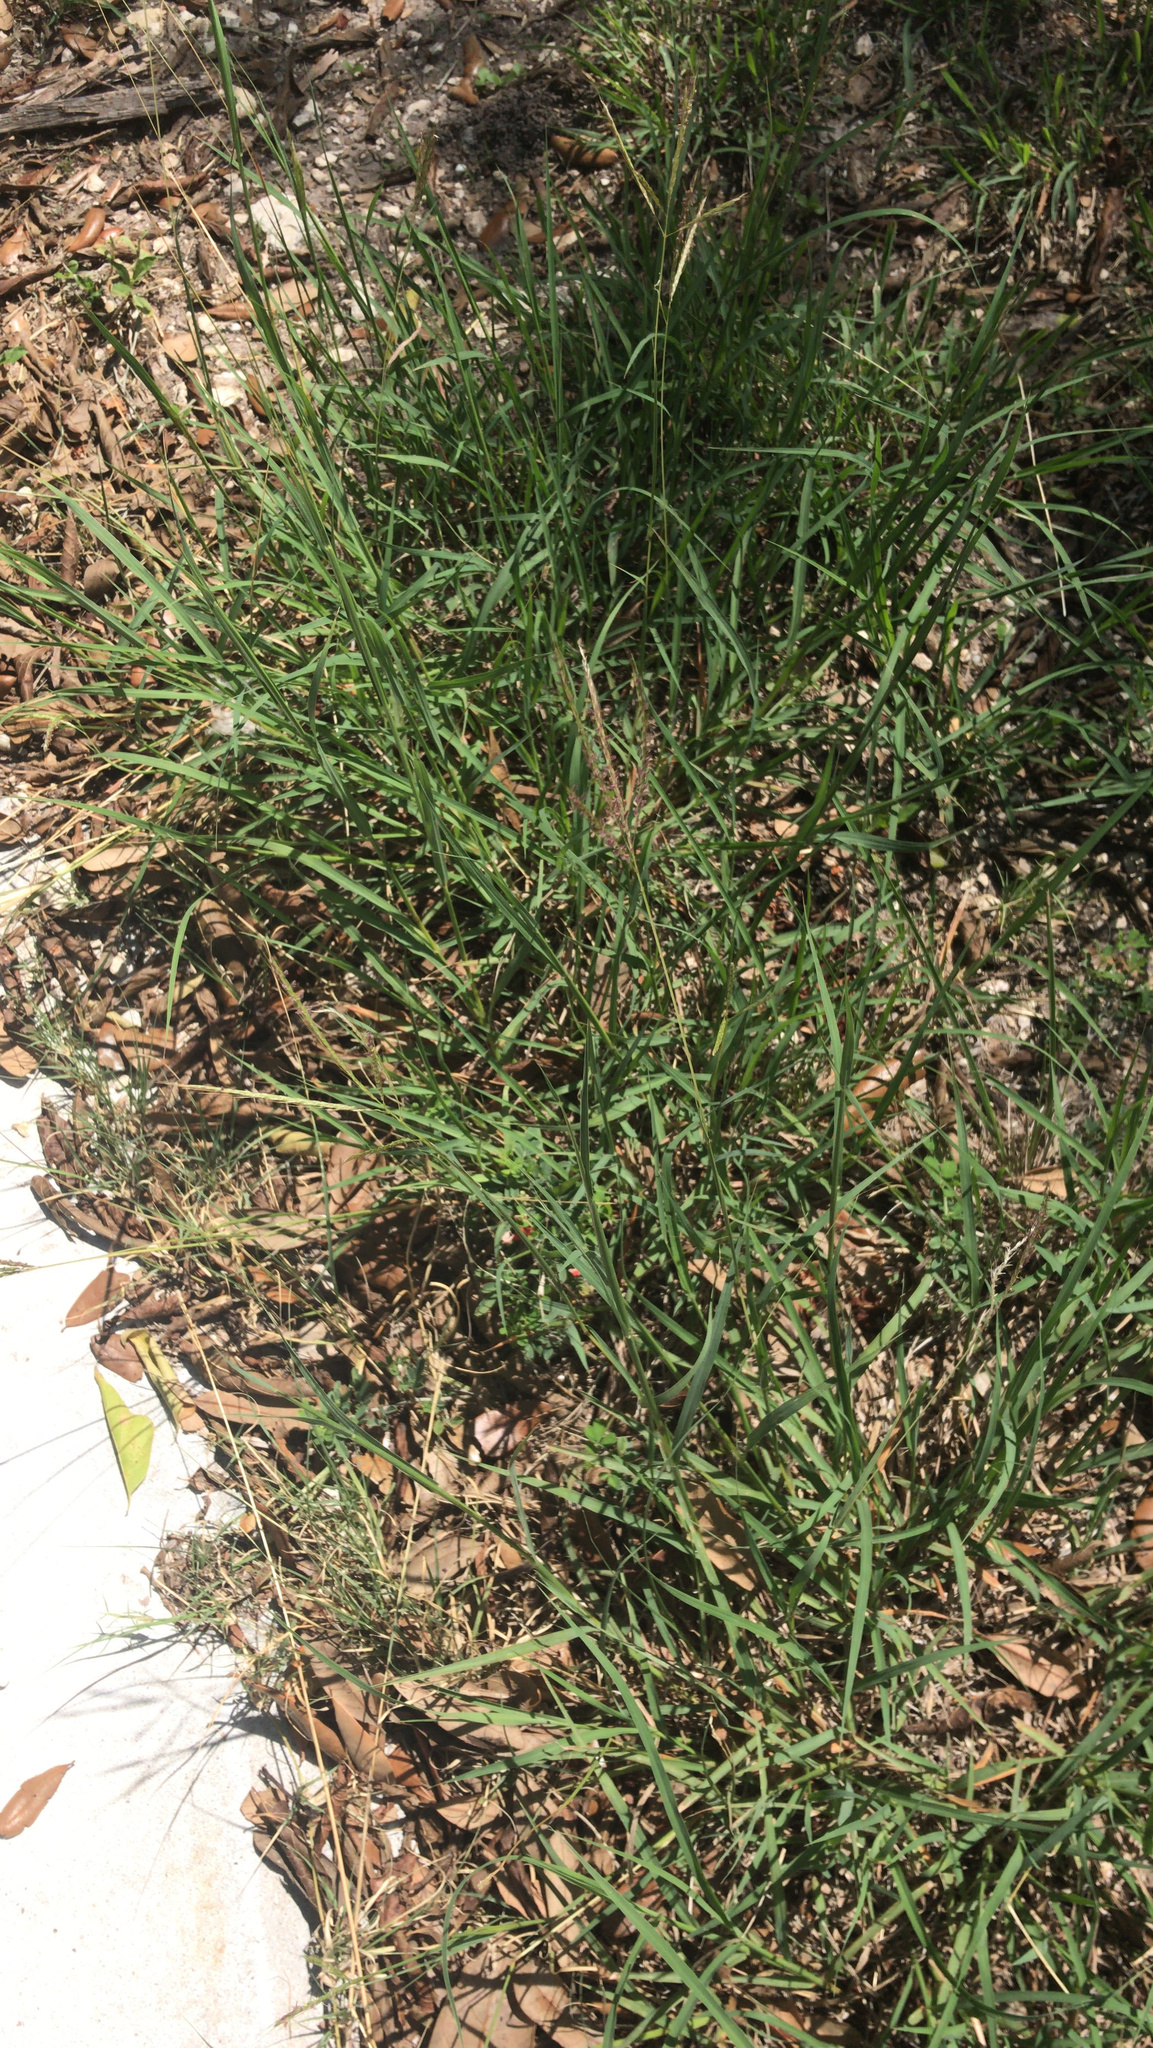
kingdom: Plantae
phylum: Tracheophyta
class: Liliopsida
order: Poales
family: Poaceae
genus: Bothriochloa
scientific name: Bothriochloa ischaemum
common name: Yellow bluestem
